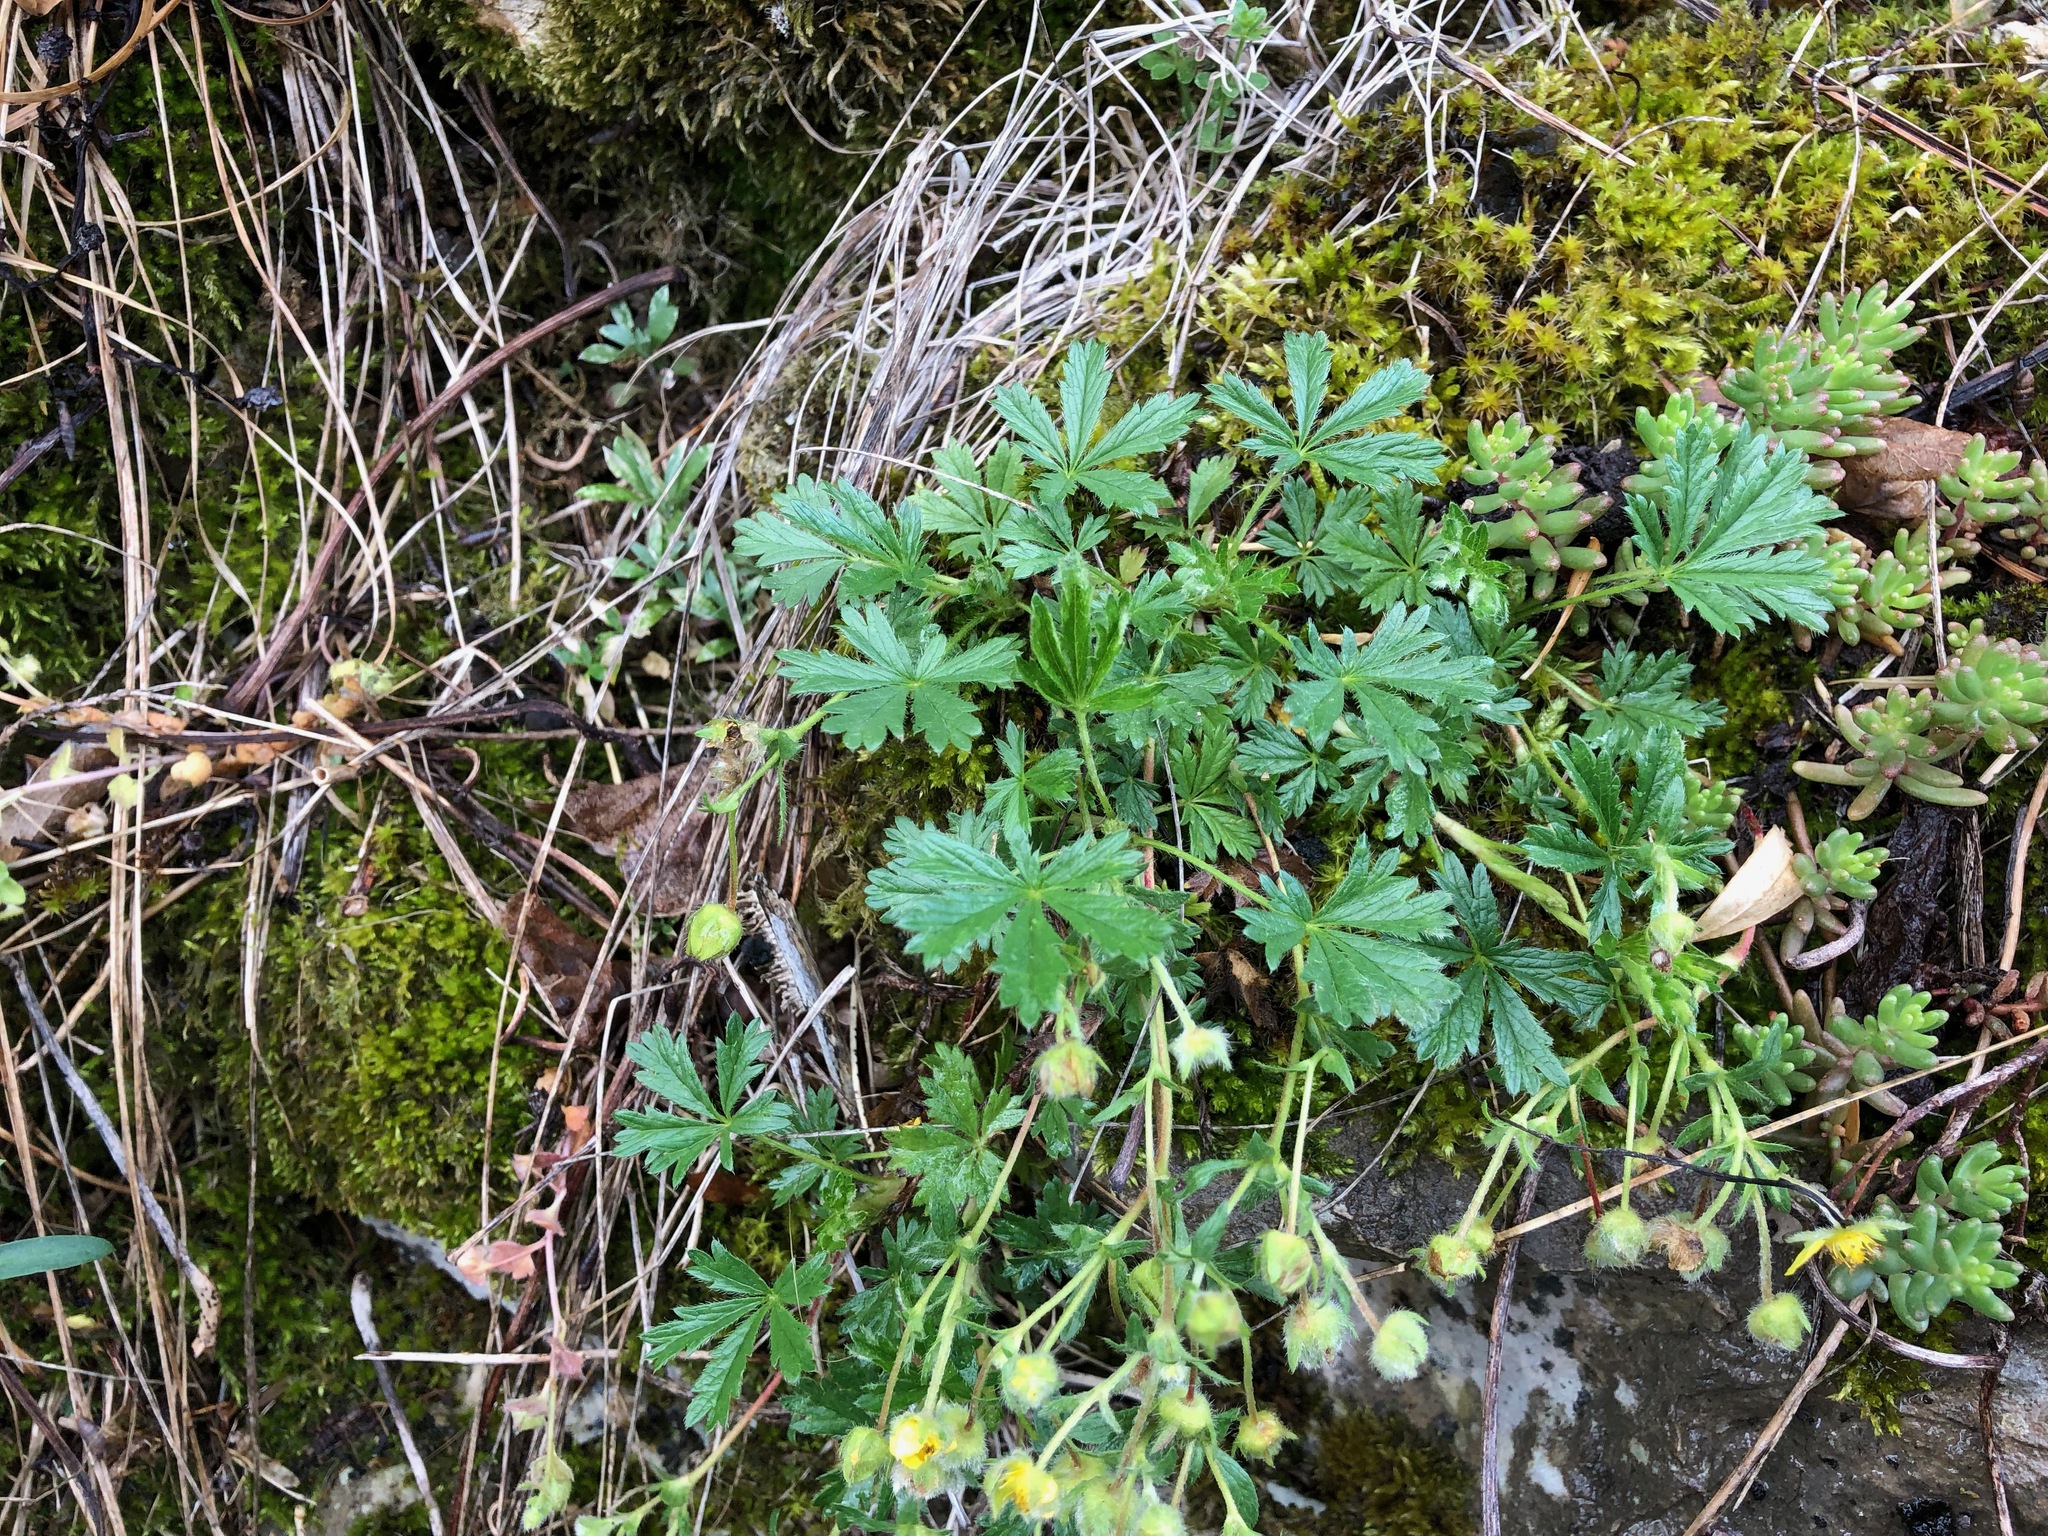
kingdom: Plantae
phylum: Tracheophyta
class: Magnoliopsida
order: Rosales
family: Rosaceae
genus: Potentilla
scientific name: Potentilla argentea
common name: Hoary cinquefoil
